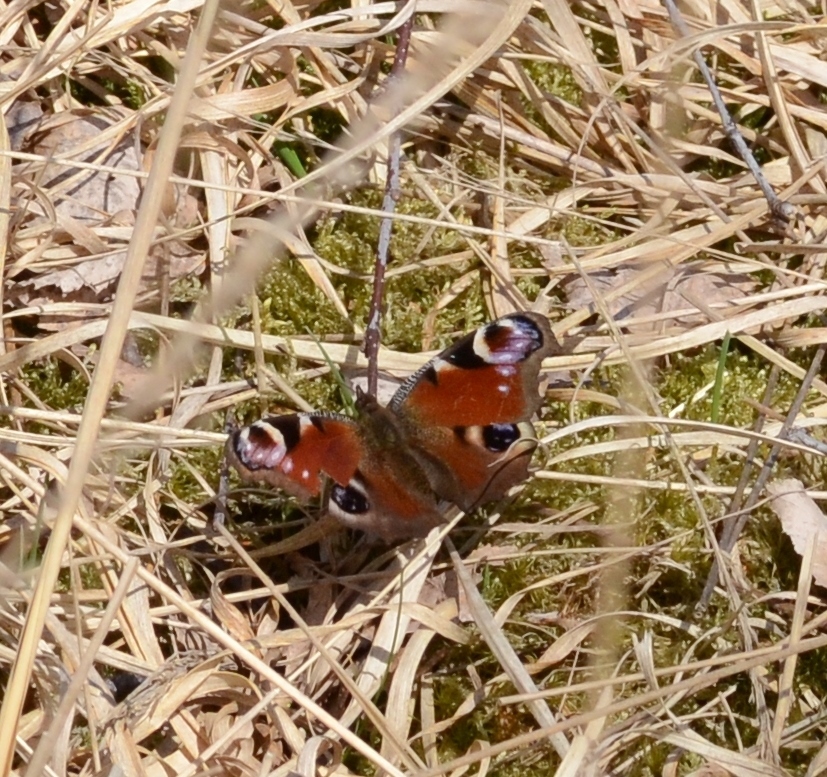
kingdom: Animalia
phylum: Arthropoda
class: Insecta
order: Lepidoptera
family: Nymphalidae
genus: Aglais
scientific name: Aglais io
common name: Peacock
